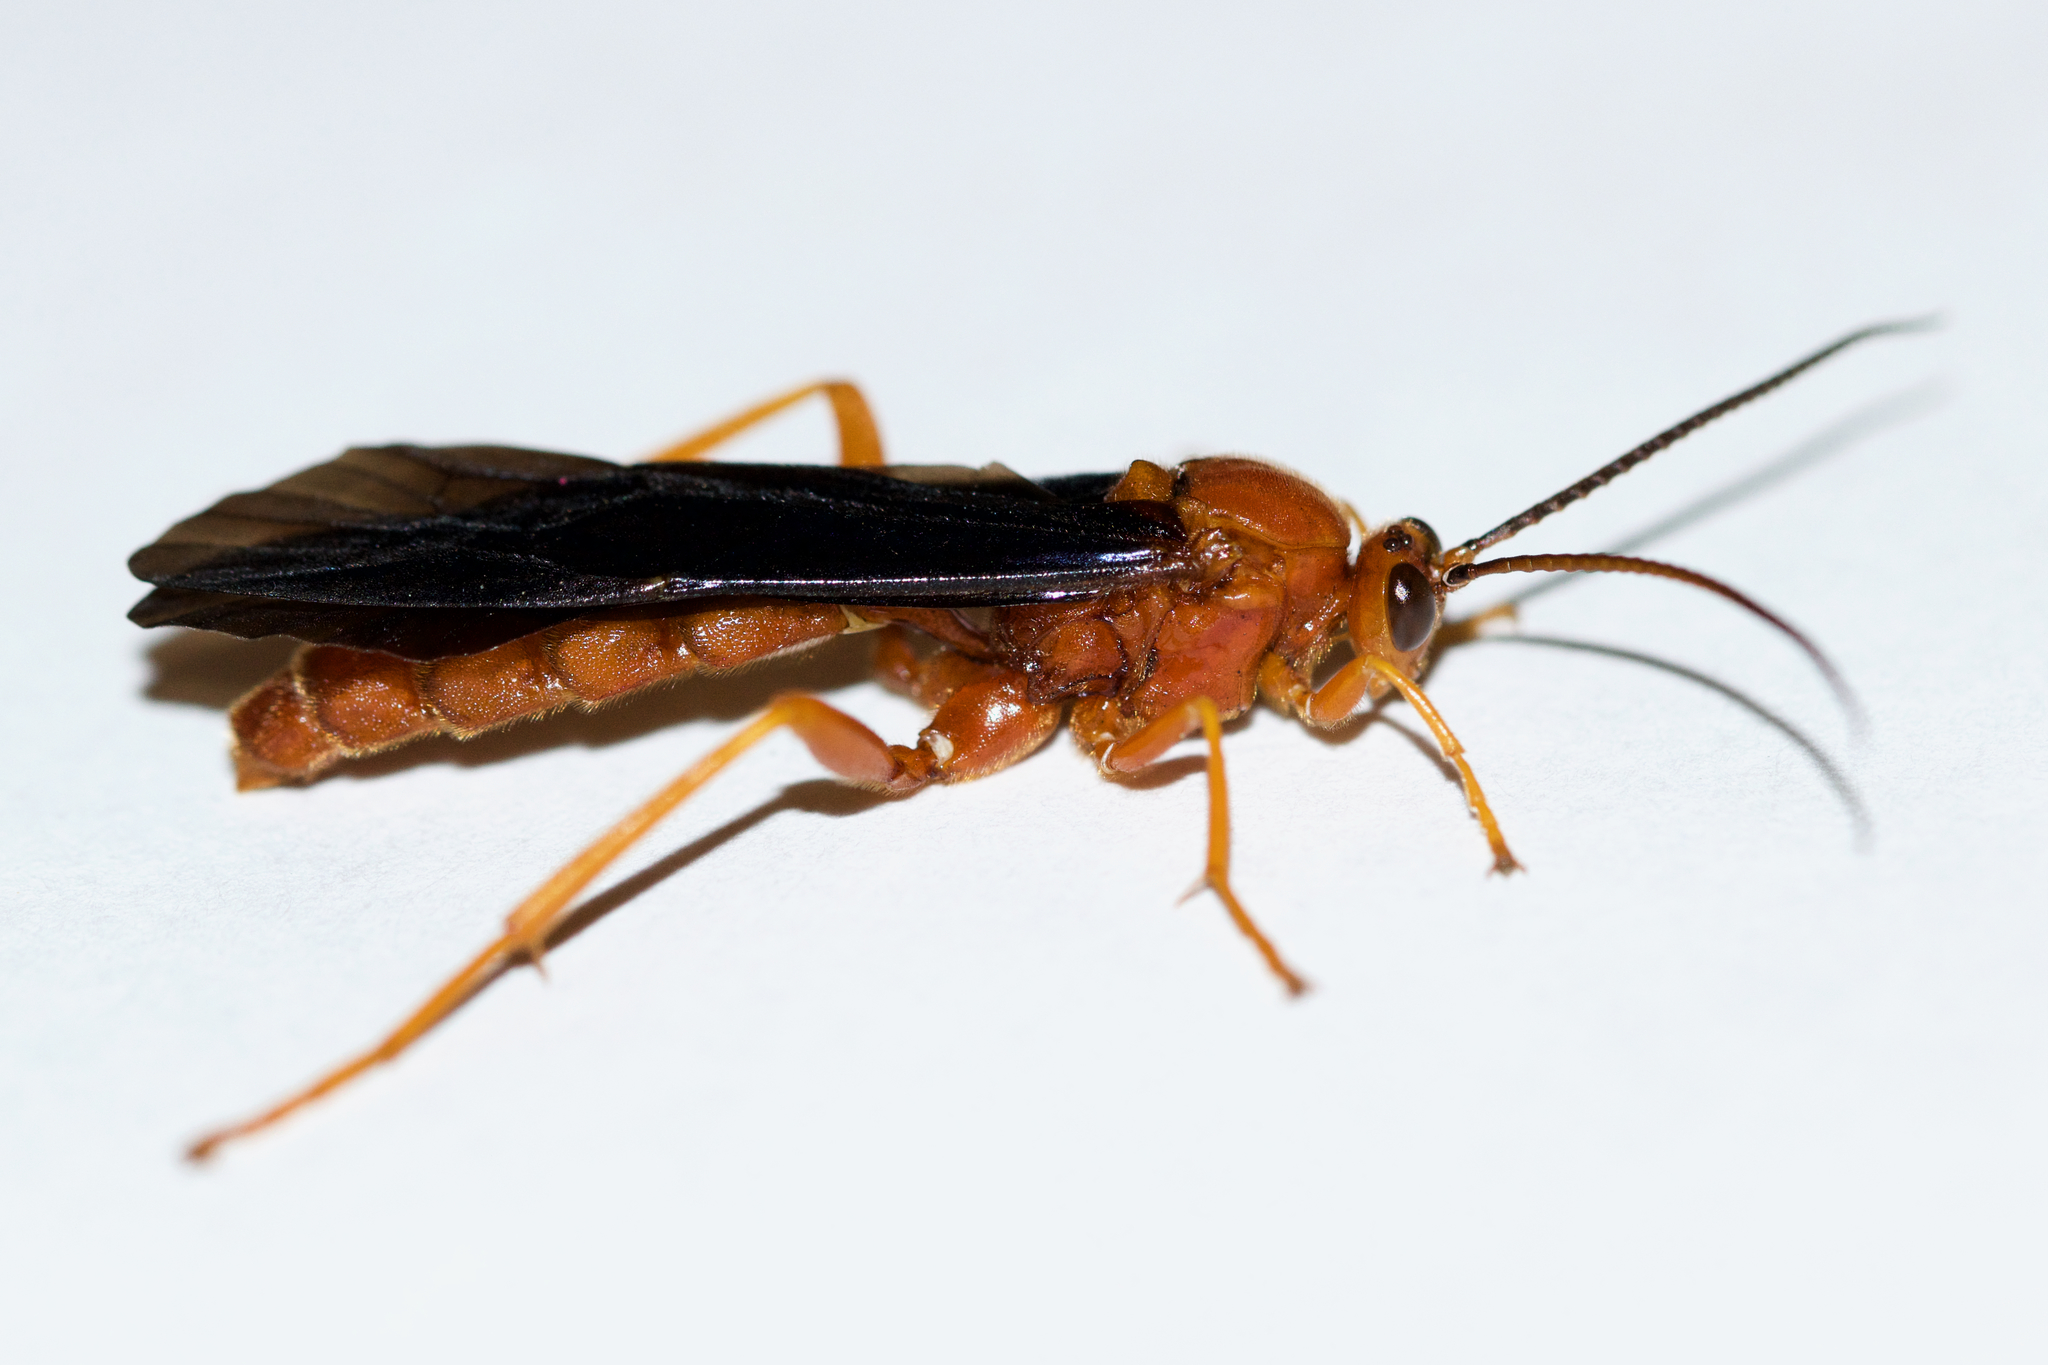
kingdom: Animalia
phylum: Arthropoda
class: Insecta
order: Hymenoptera
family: Ichneumonidae
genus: Trogus
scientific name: Trogus vulpinus
